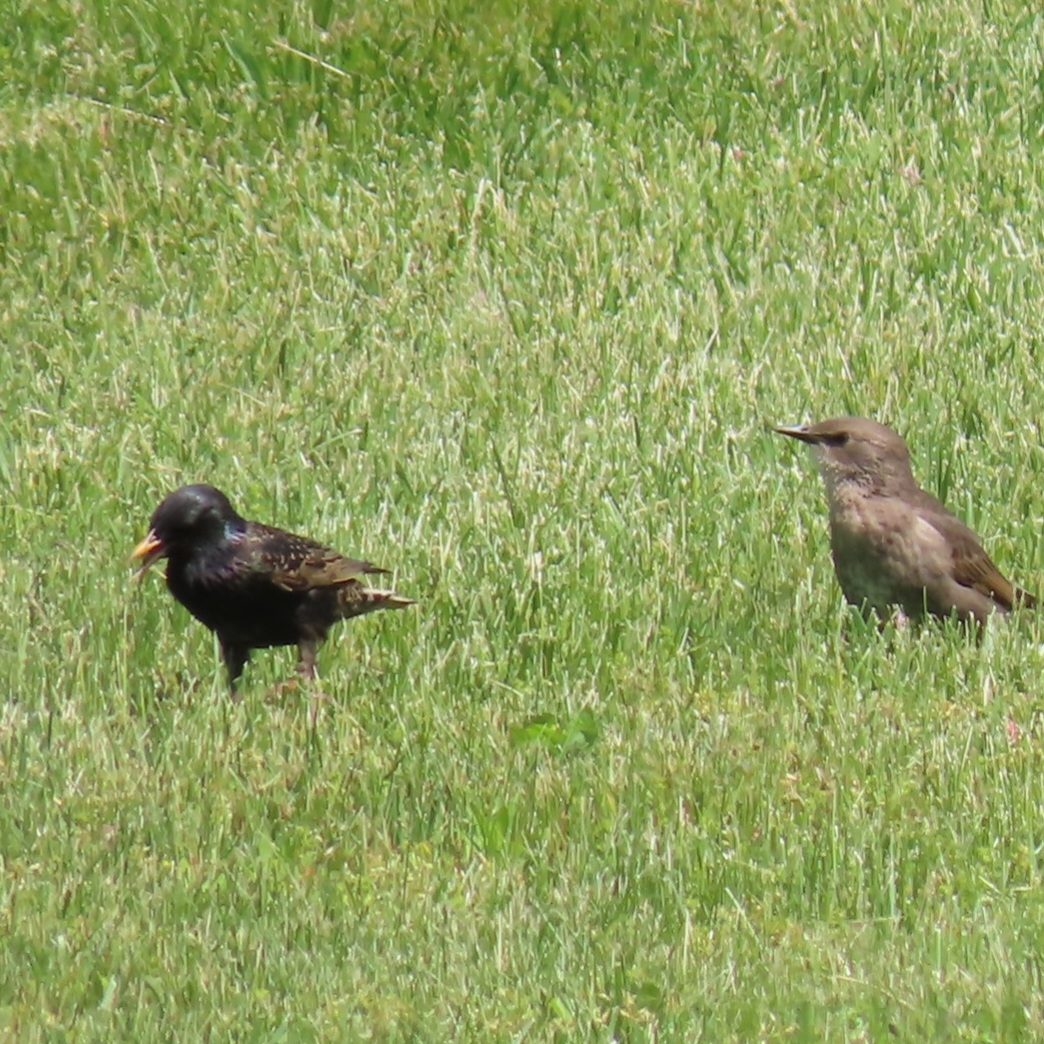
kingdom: Animalia
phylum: Chordata
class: Aves
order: Passeriformes
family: Sturnidae
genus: Sturnus
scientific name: Sturnus vulgaris
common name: Common starling
